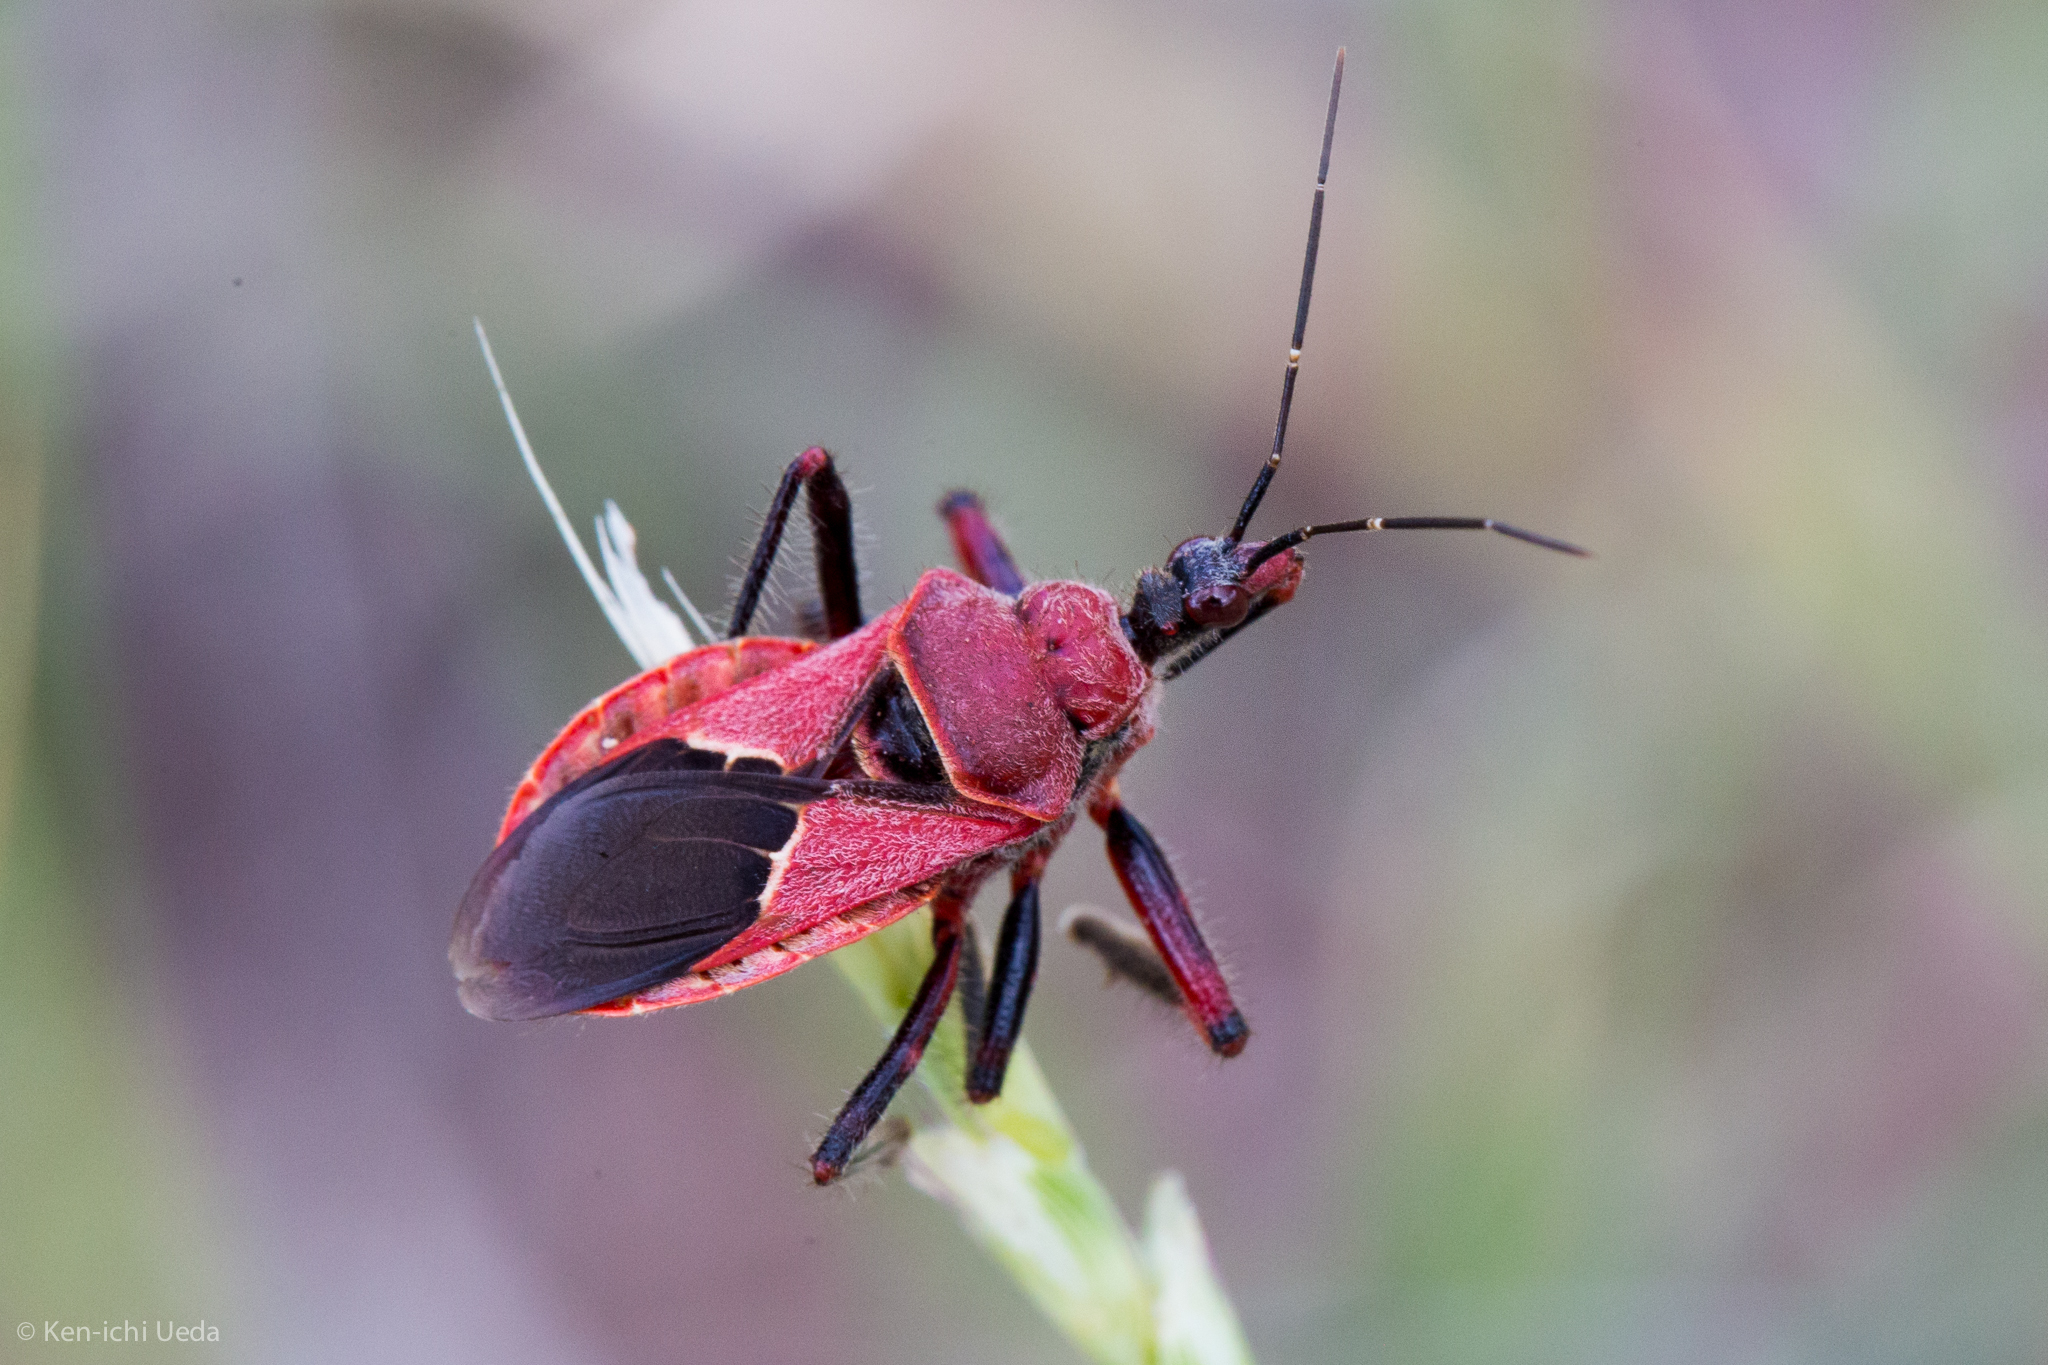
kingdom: Animalia
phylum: Arthropoda
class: Insecta
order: Hemiptera
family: Reduviidae
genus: Apiomerus
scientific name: Apiomerus cazieri
